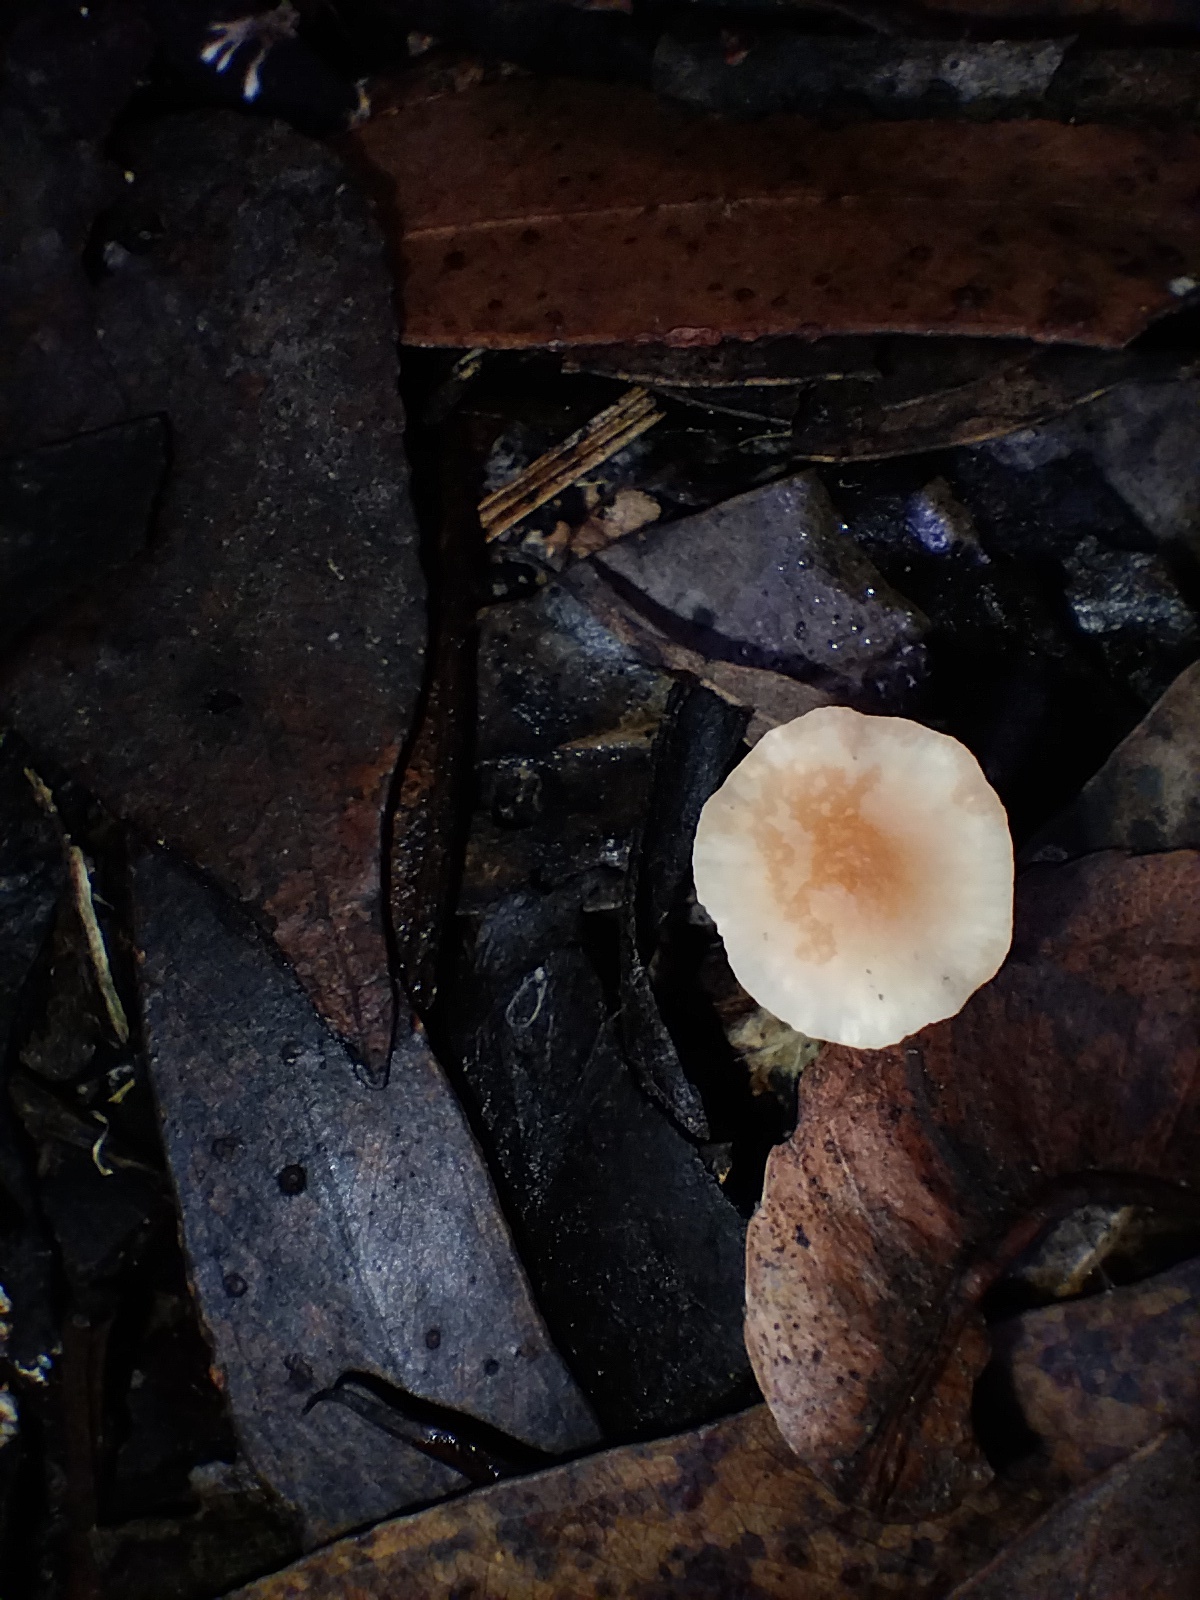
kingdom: Fungi
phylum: Basidiomycota
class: Agaricomycetes
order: Agaricales
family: Marasmiaceae
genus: Marasmius
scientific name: Marasmius elegans
